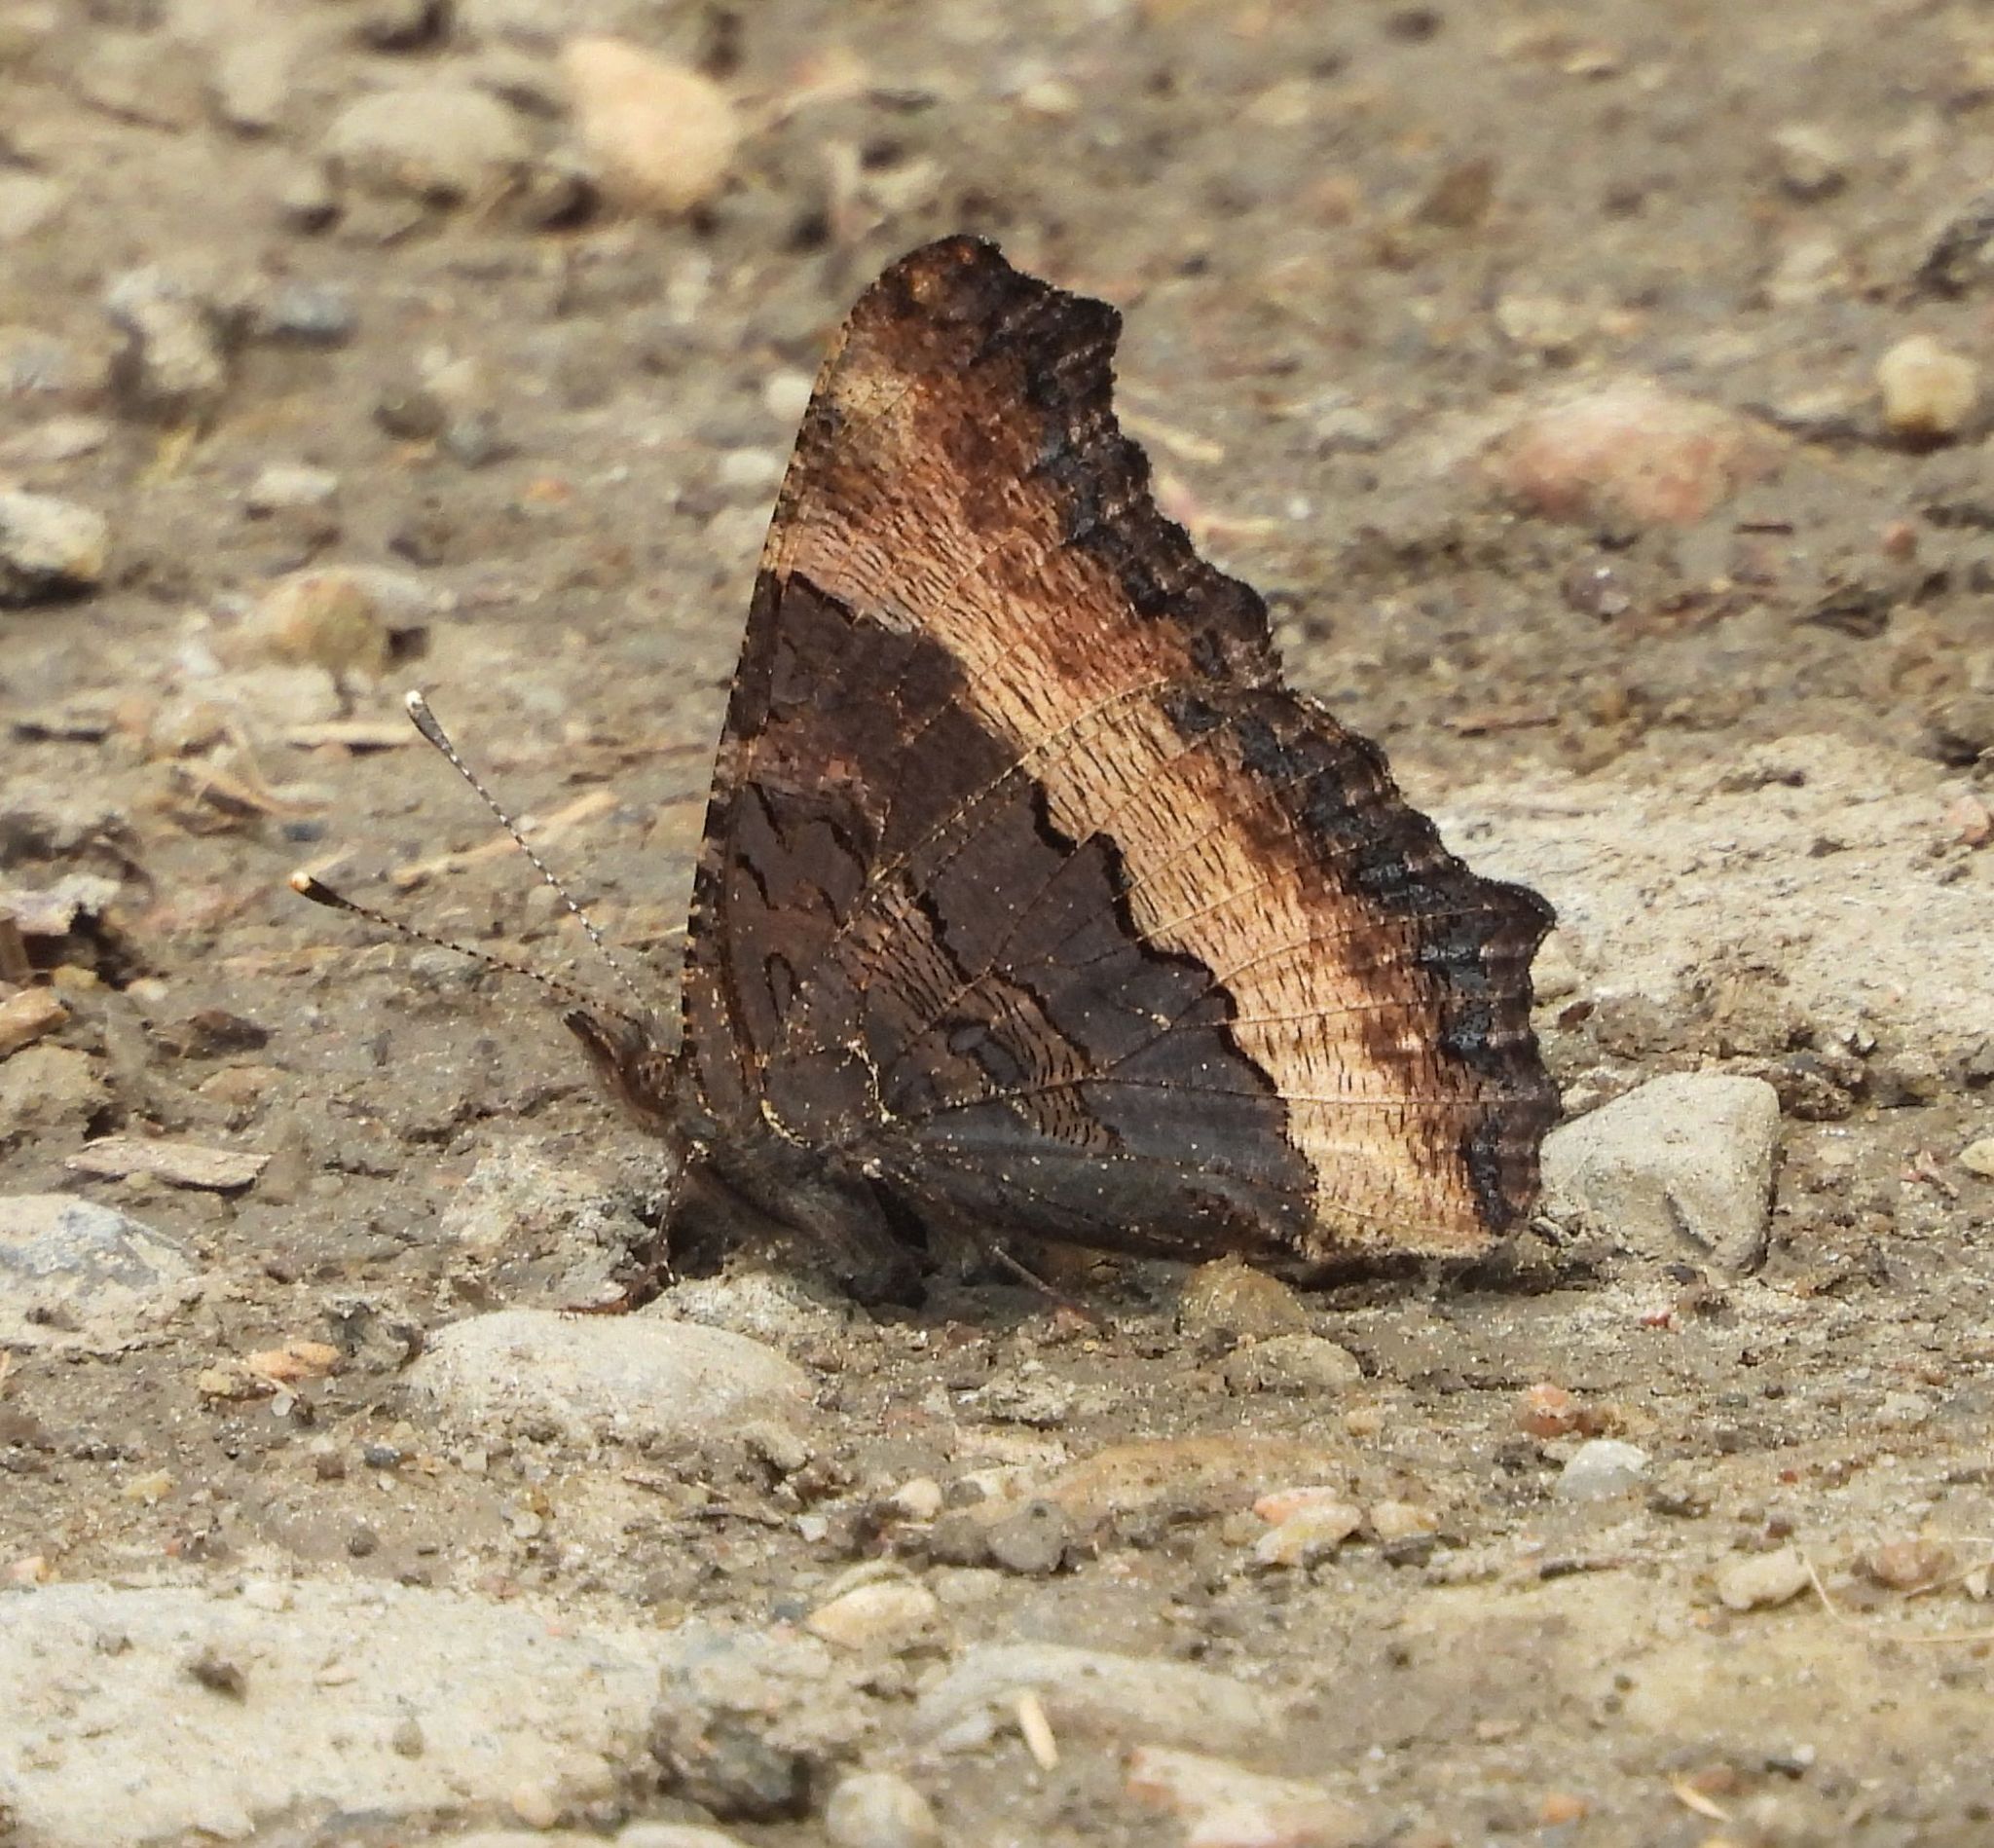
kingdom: Animalia
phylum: Arthropoda
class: Insecta
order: Lepidoptera
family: Nymphalidae
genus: Aglais
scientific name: Aglais milberti
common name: Milbert's tortoiseshell
